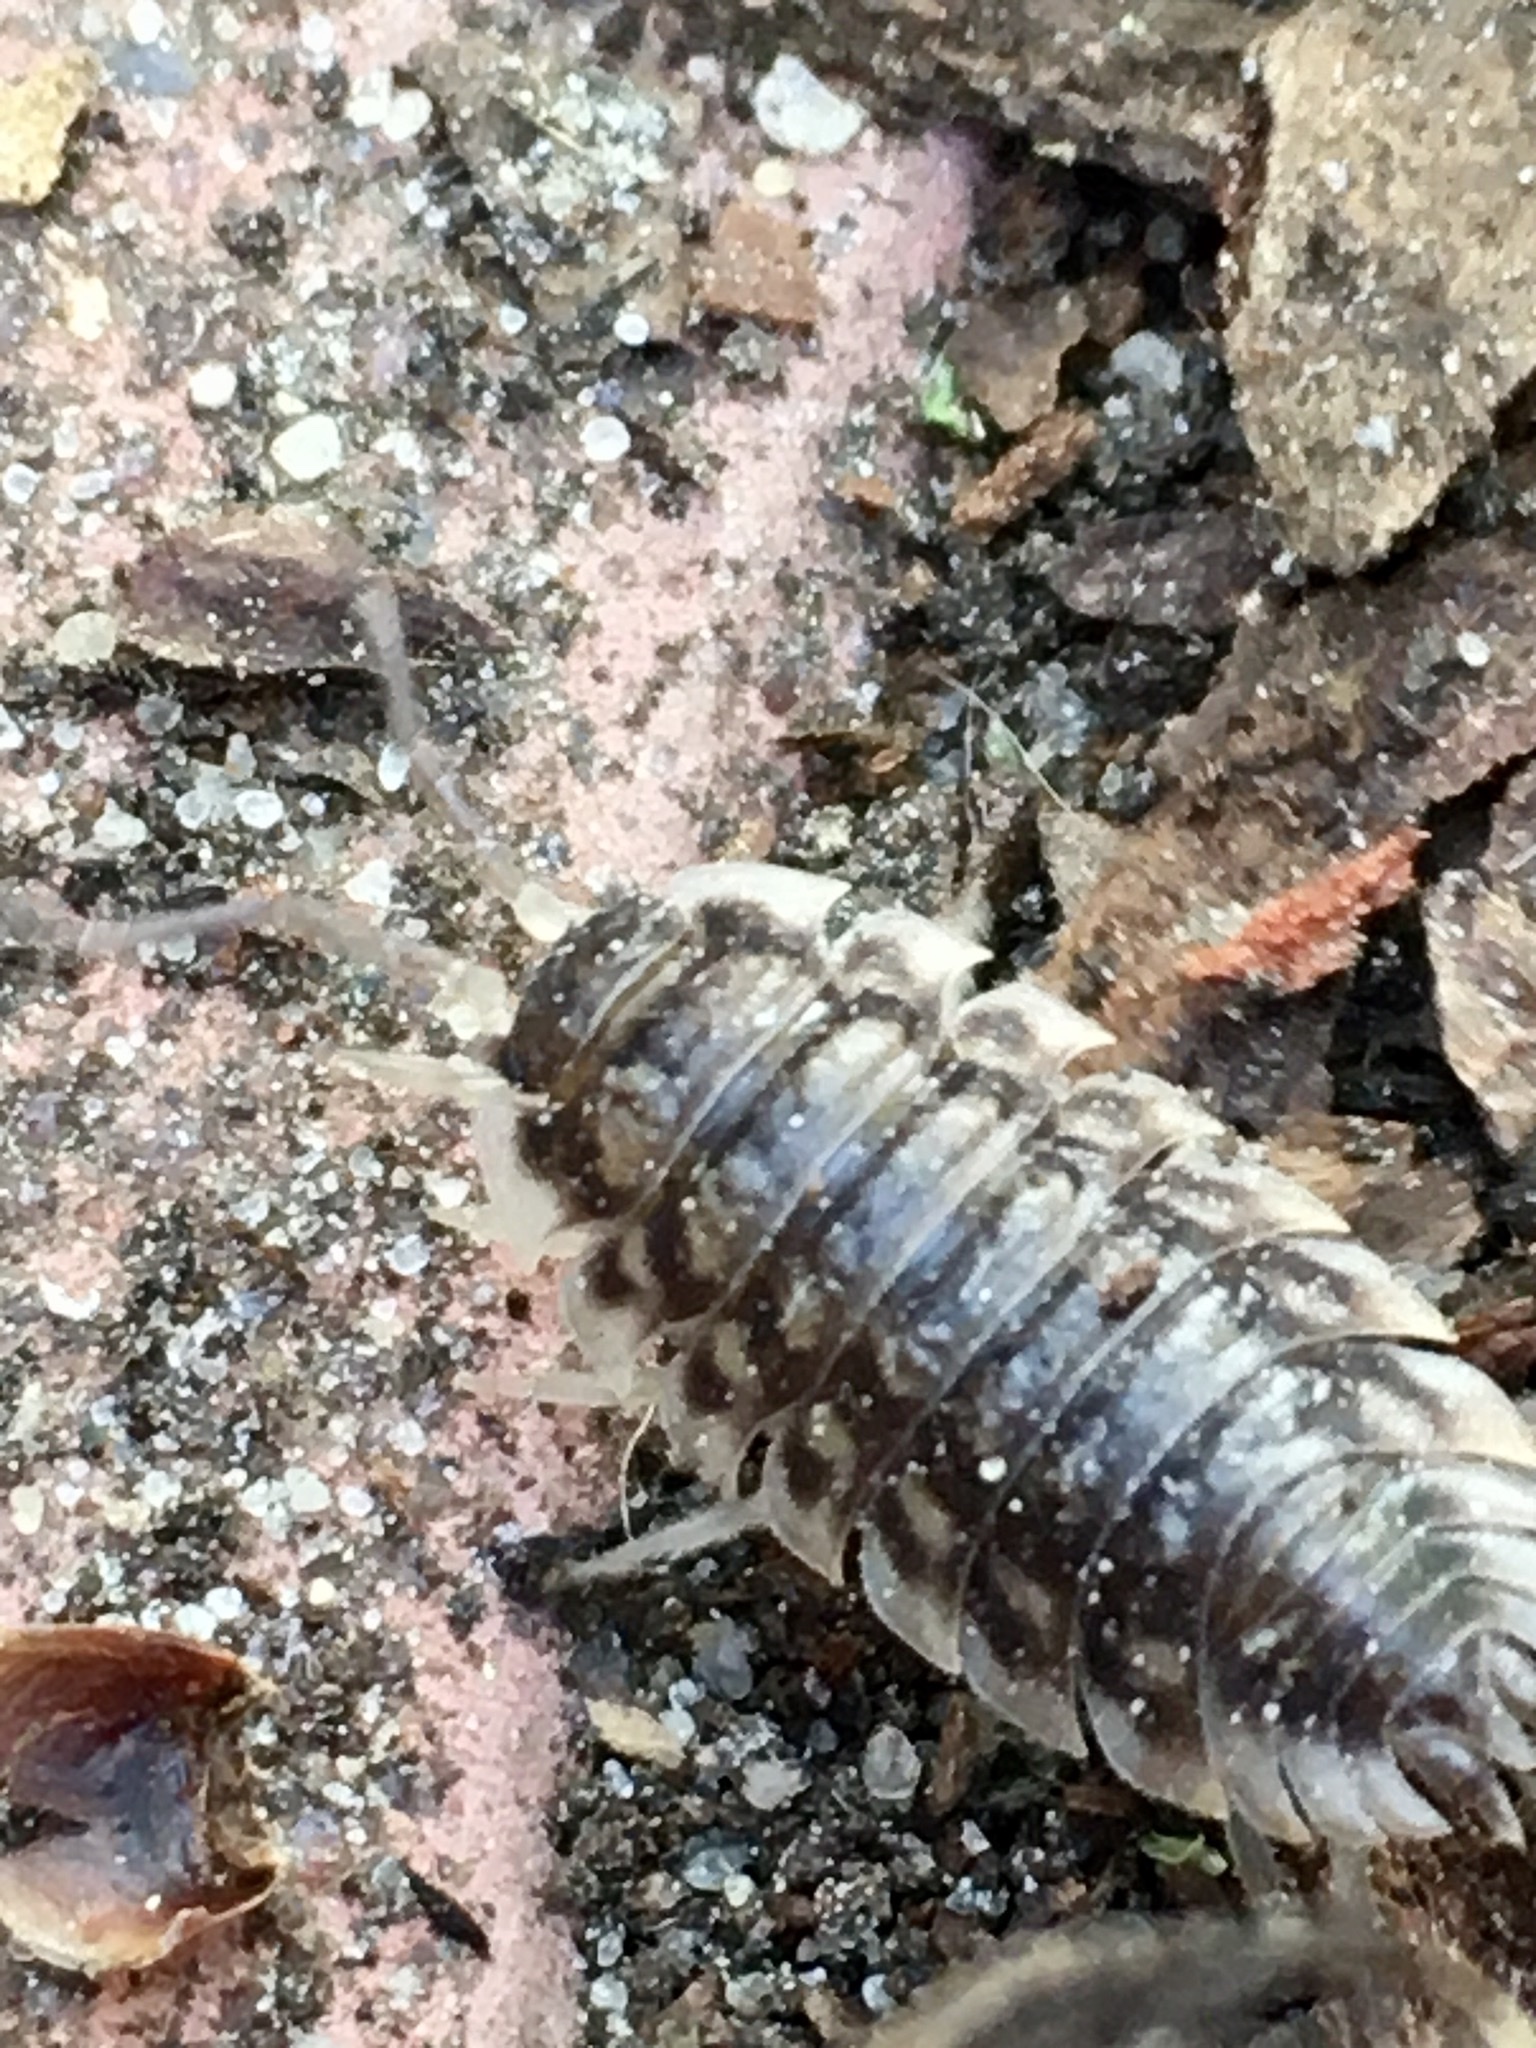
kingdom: Animalia
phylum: Arthropoda
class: Malacostraca
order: Isopoda
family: Oniscidae
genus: Oniscus
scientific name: Oniscus asellus
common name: Common shiny woodlouse
